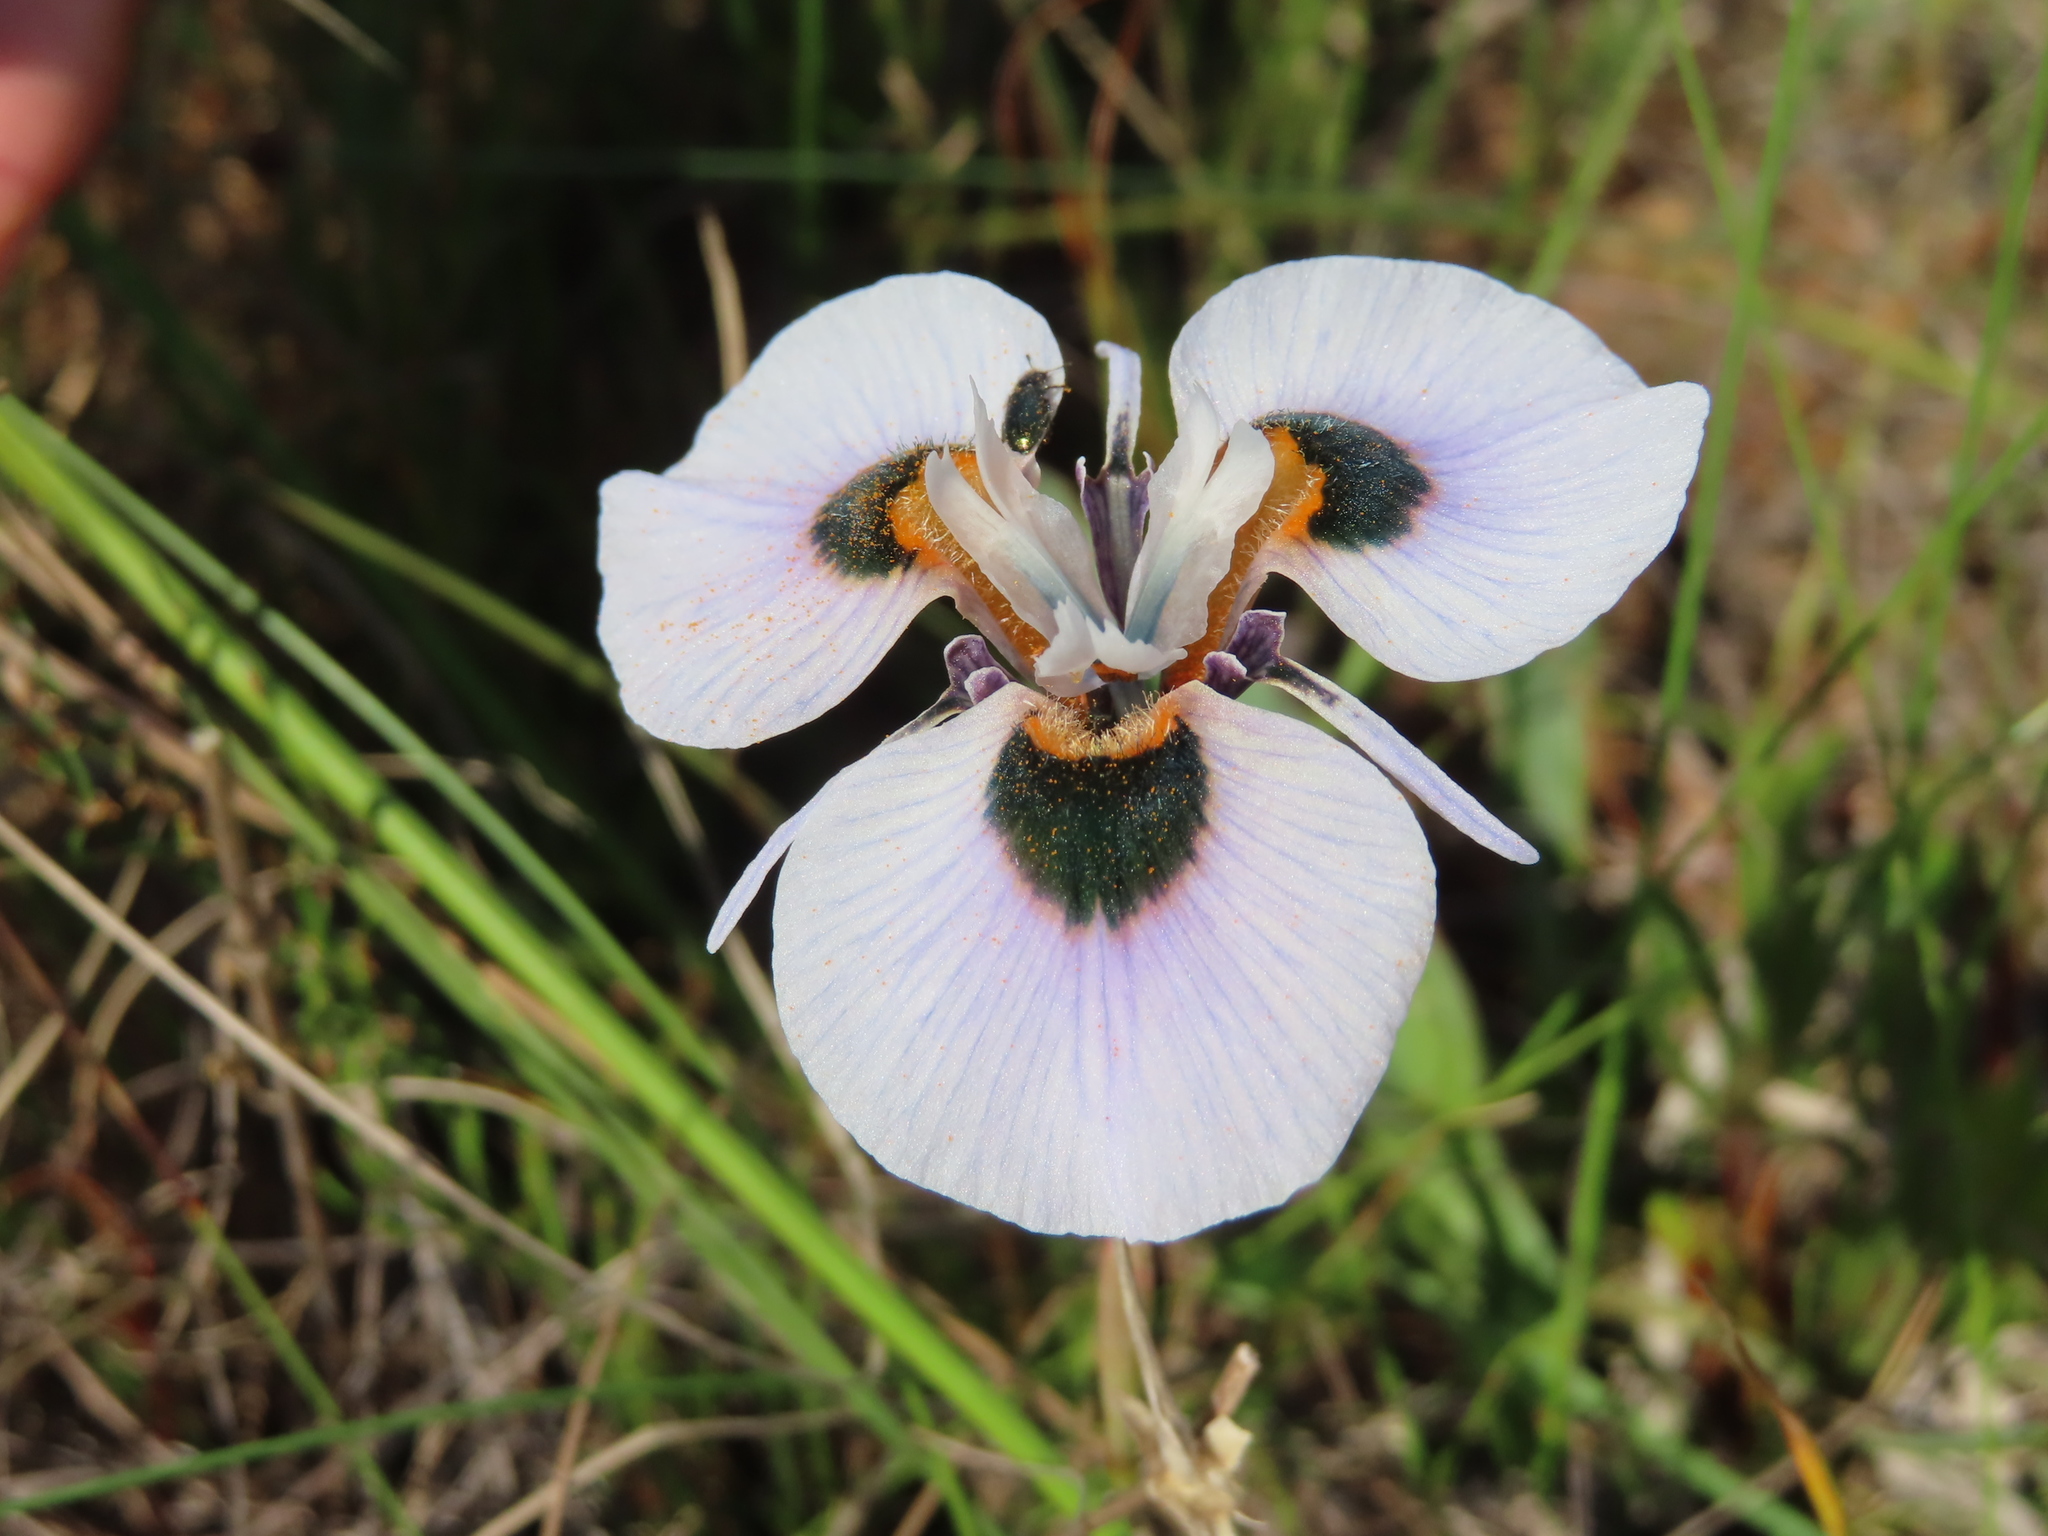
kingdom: Plantae
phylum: Tracheophyta
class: Liliopsida
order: Asparagales
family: Iridaceae
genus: Moraea
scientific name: Moraea villosa
